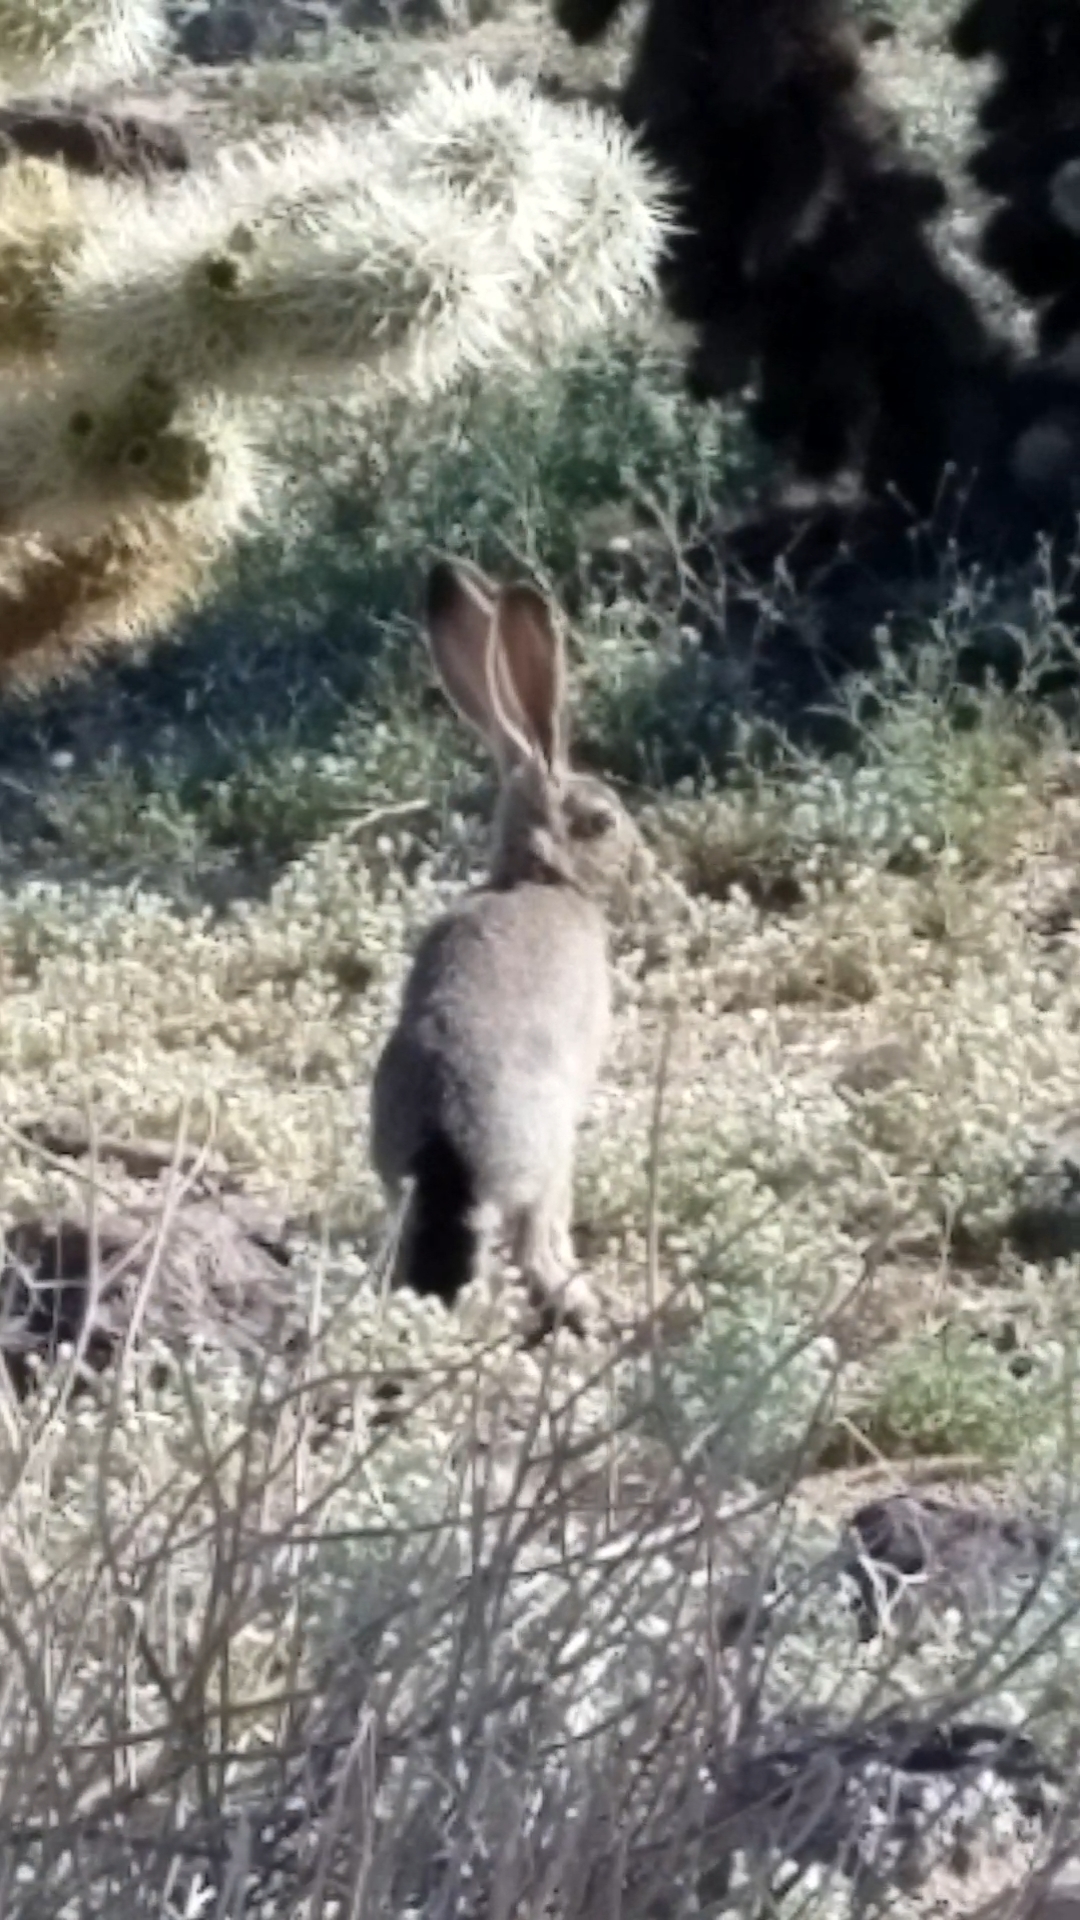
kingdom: Animalia
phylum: Chordata
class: Mammalia
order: Lagomorpha
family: Leporidae
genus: Lepus
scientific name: Lepus californicus
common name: Black-tailed jackrabbit
